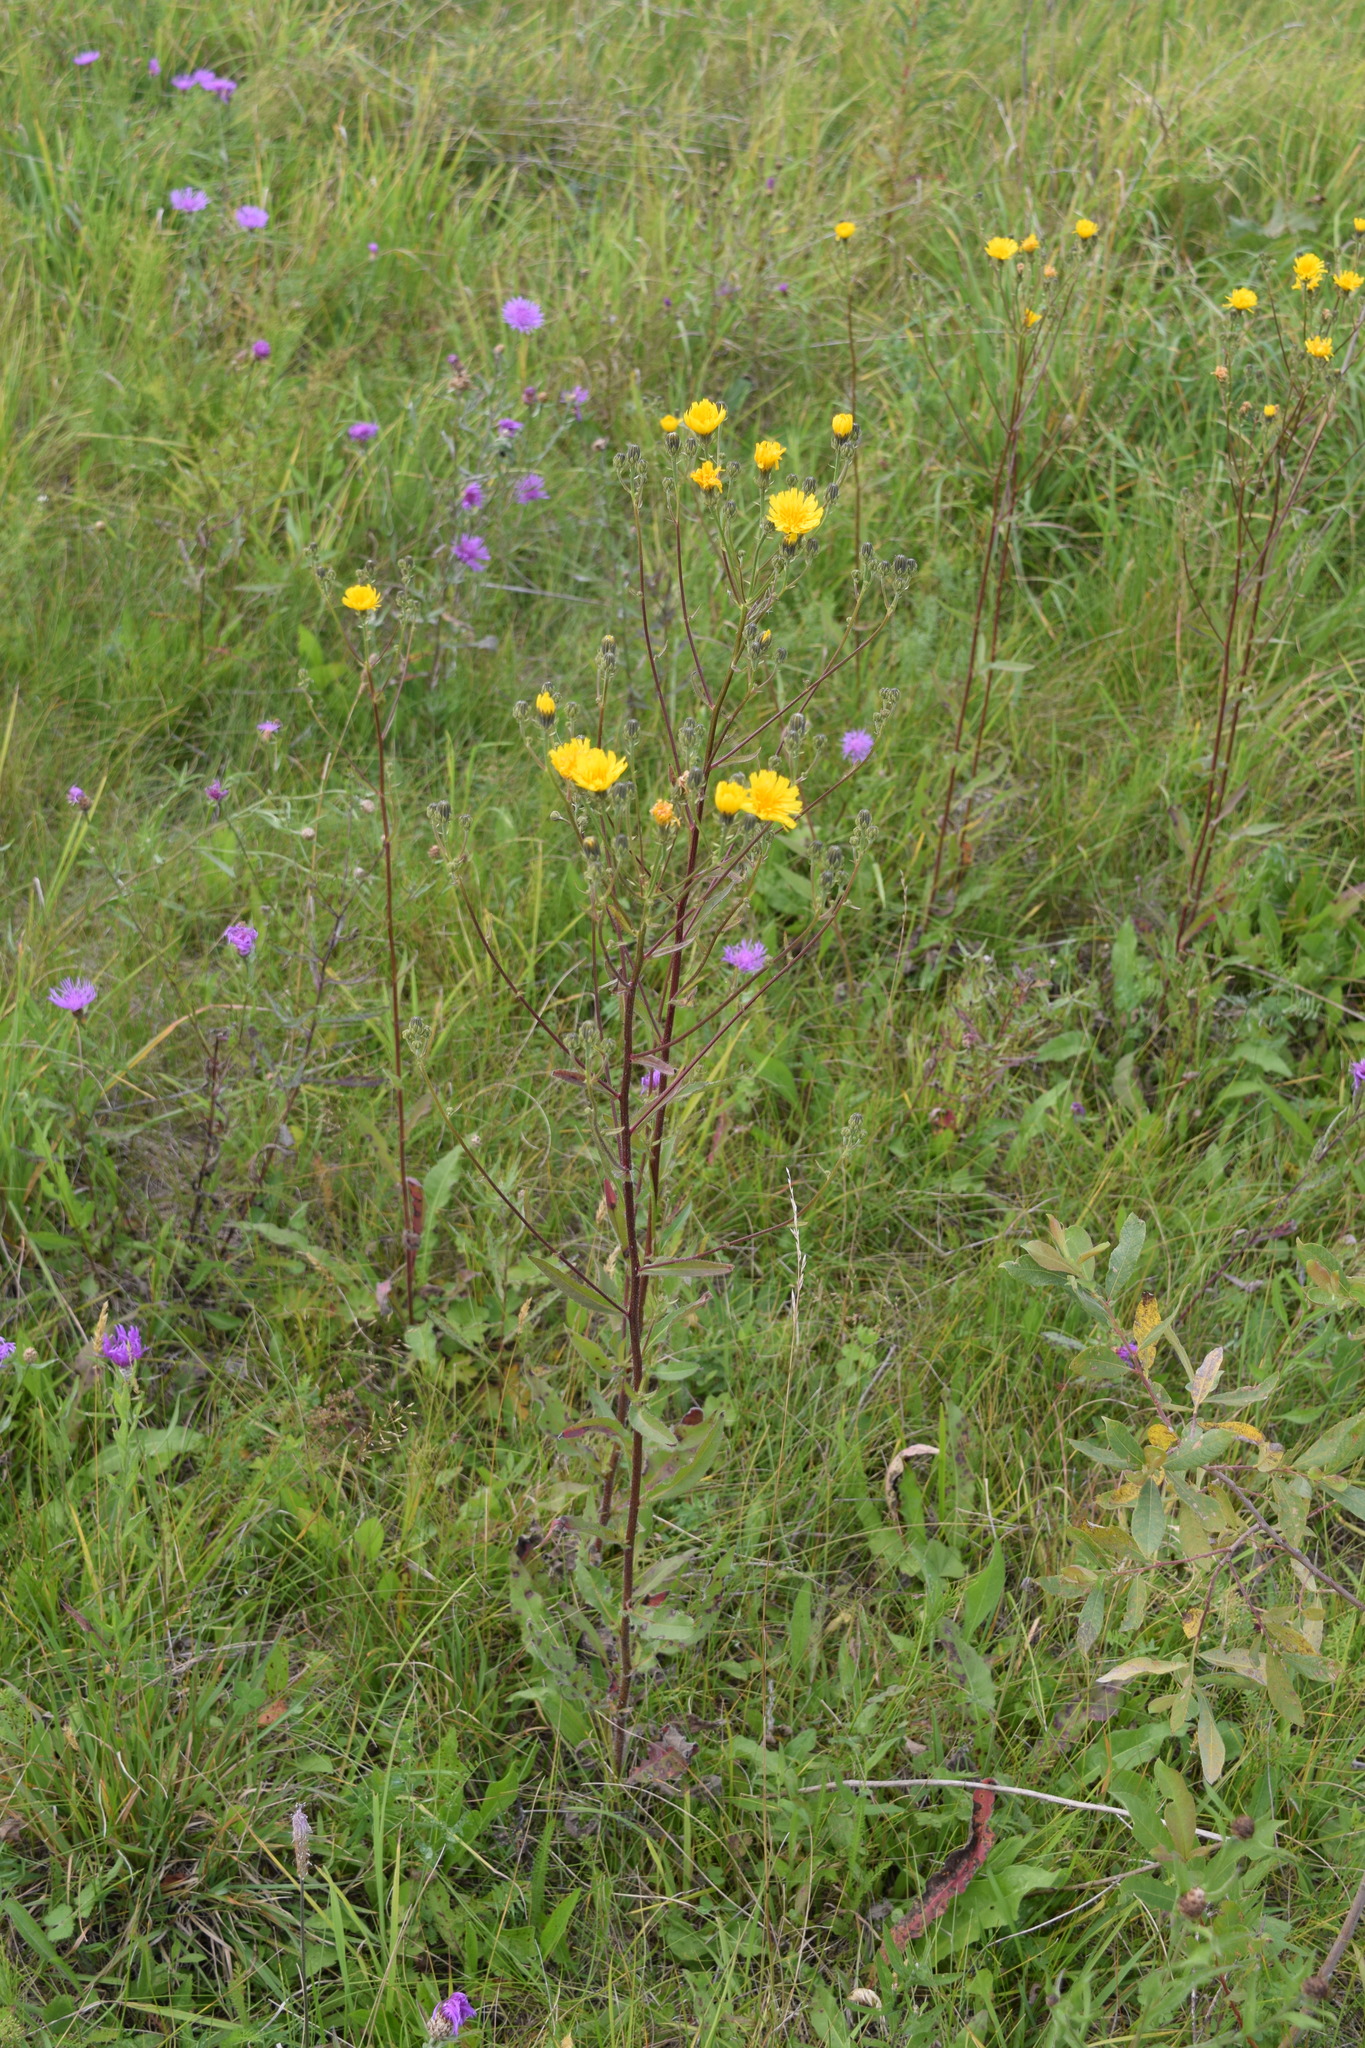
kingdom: Plantae
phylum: Tracheophyta
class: Magnoliopsida
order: Asterales
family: Asteraceae
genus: Picris
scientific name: Picris hieracioides
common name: Hawkweed oxtongue
